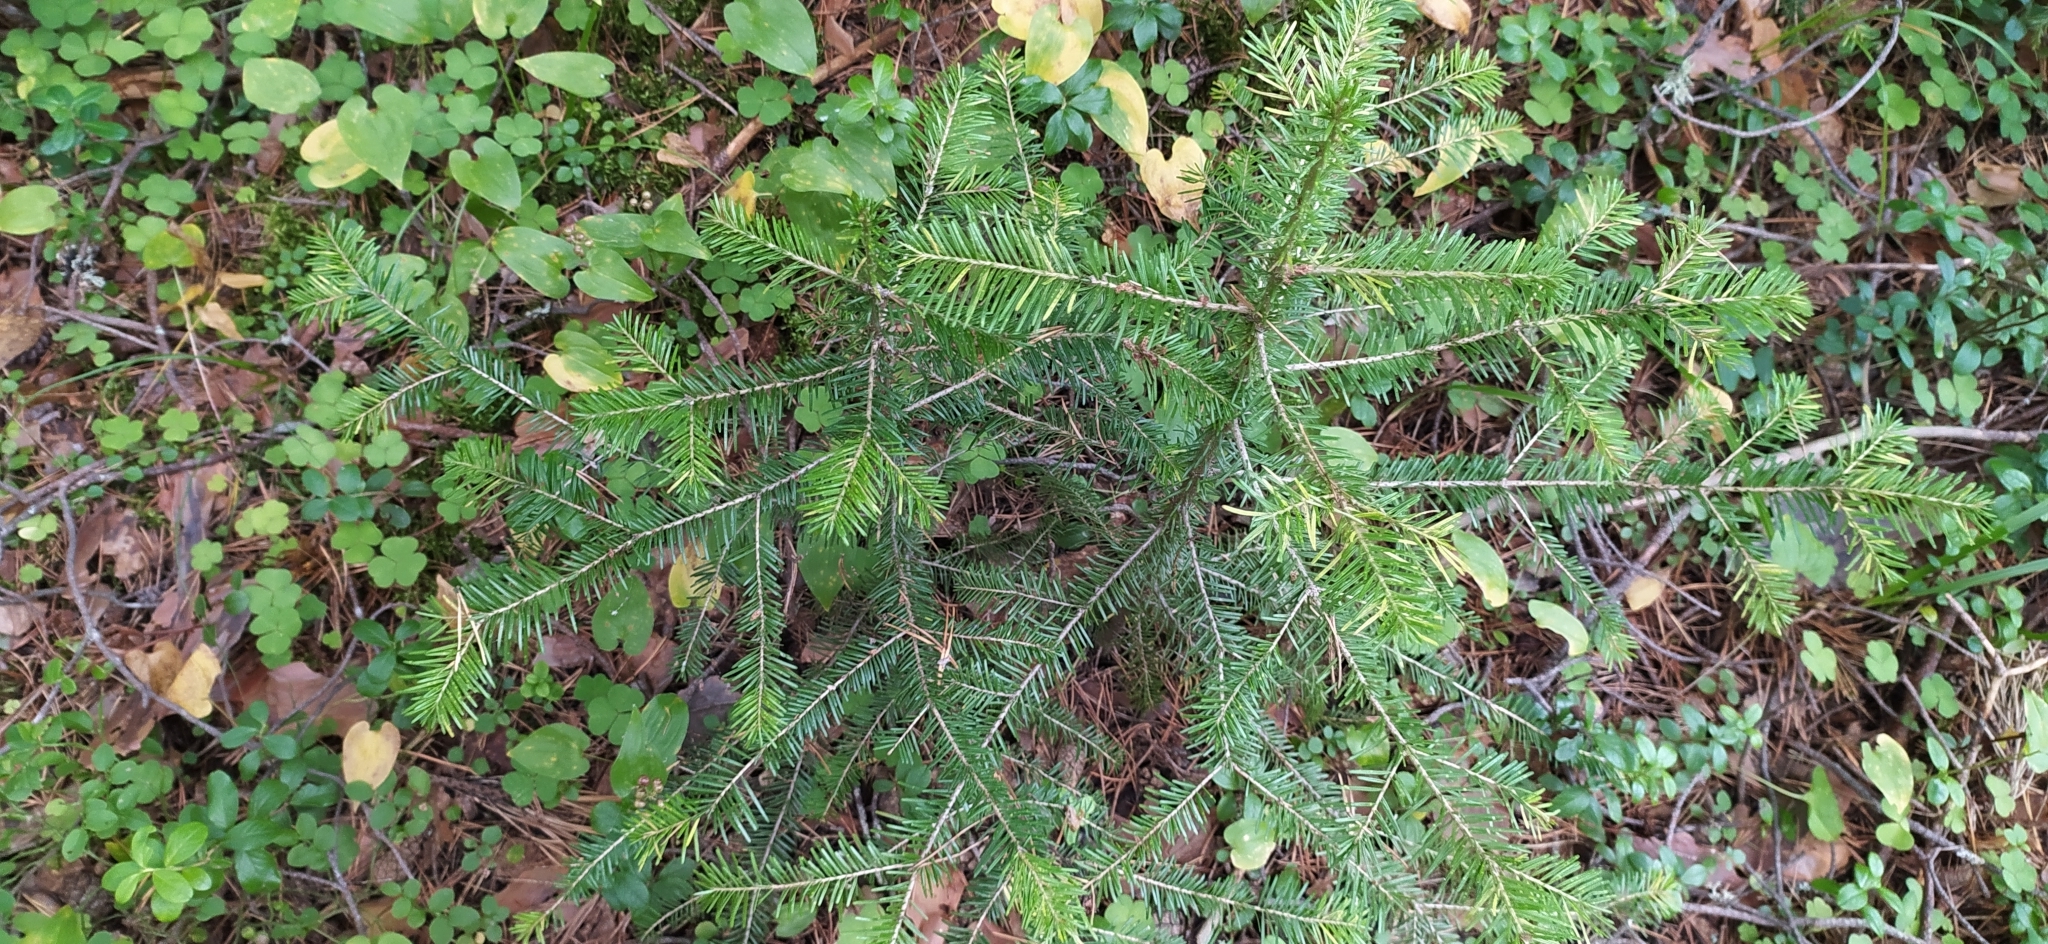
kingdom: Plantae
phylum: Tracheophyta
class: Pinopsida
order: Pinales
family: Pinaceae
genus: Abies
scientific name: Abies sibirica
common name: Siberian fir
